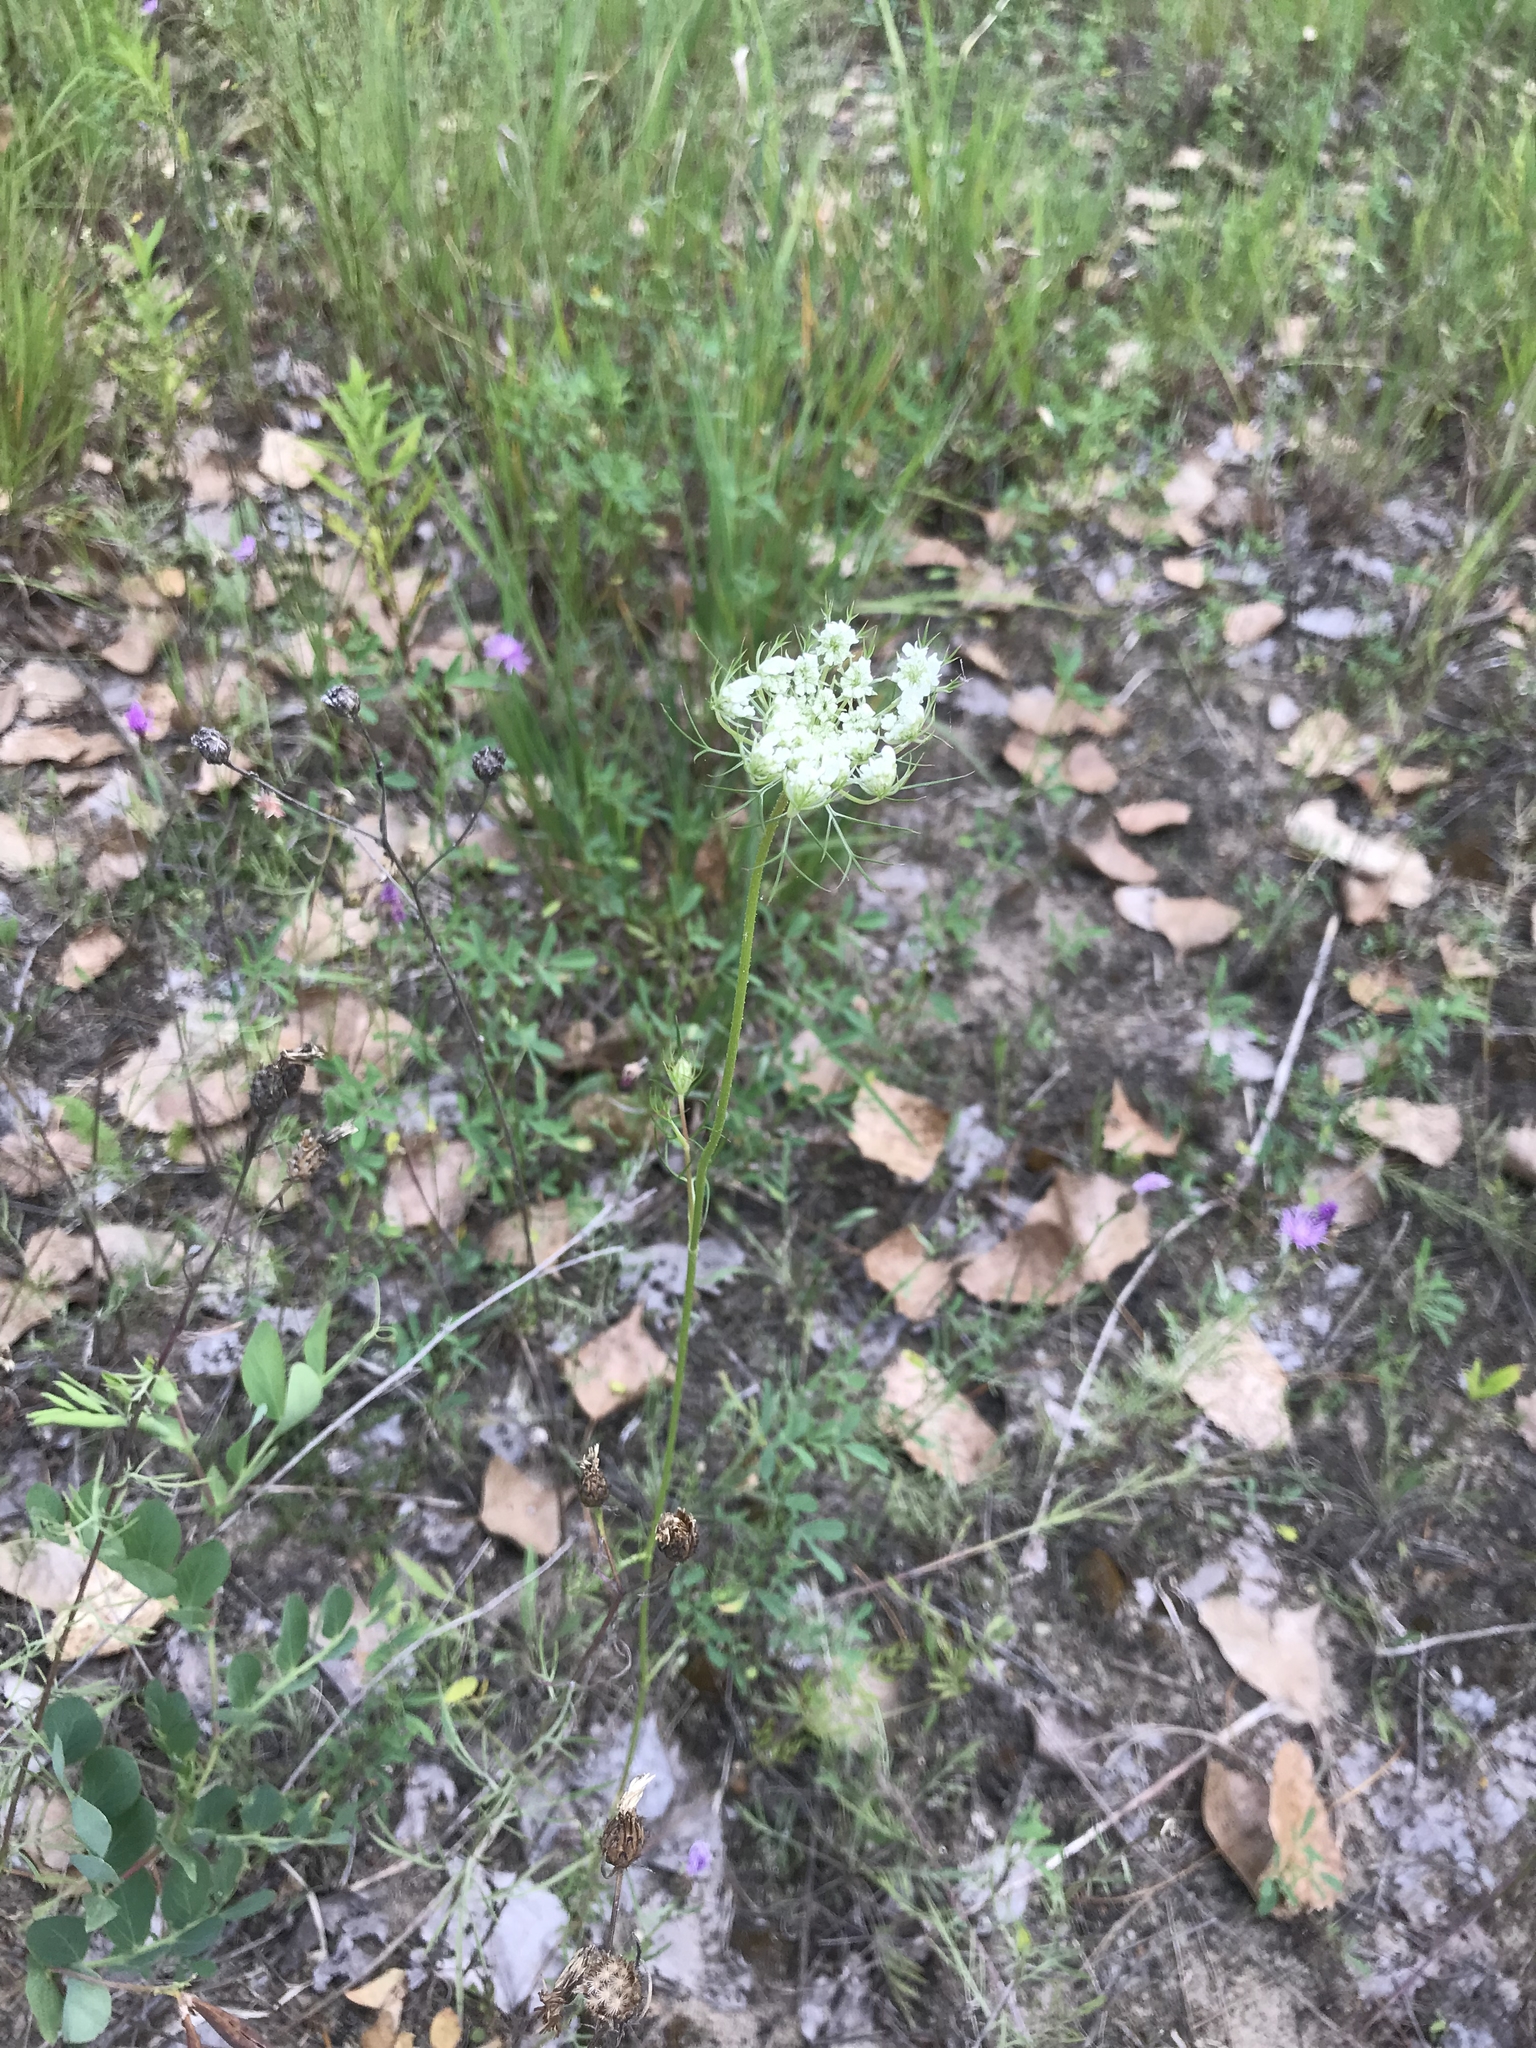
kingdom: Plantae
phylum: Tracheophyta
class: Magnoliopsida
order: Apiales
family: Apiaceae
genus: Daucus
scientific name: Daucus carota
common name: Wild carrot
